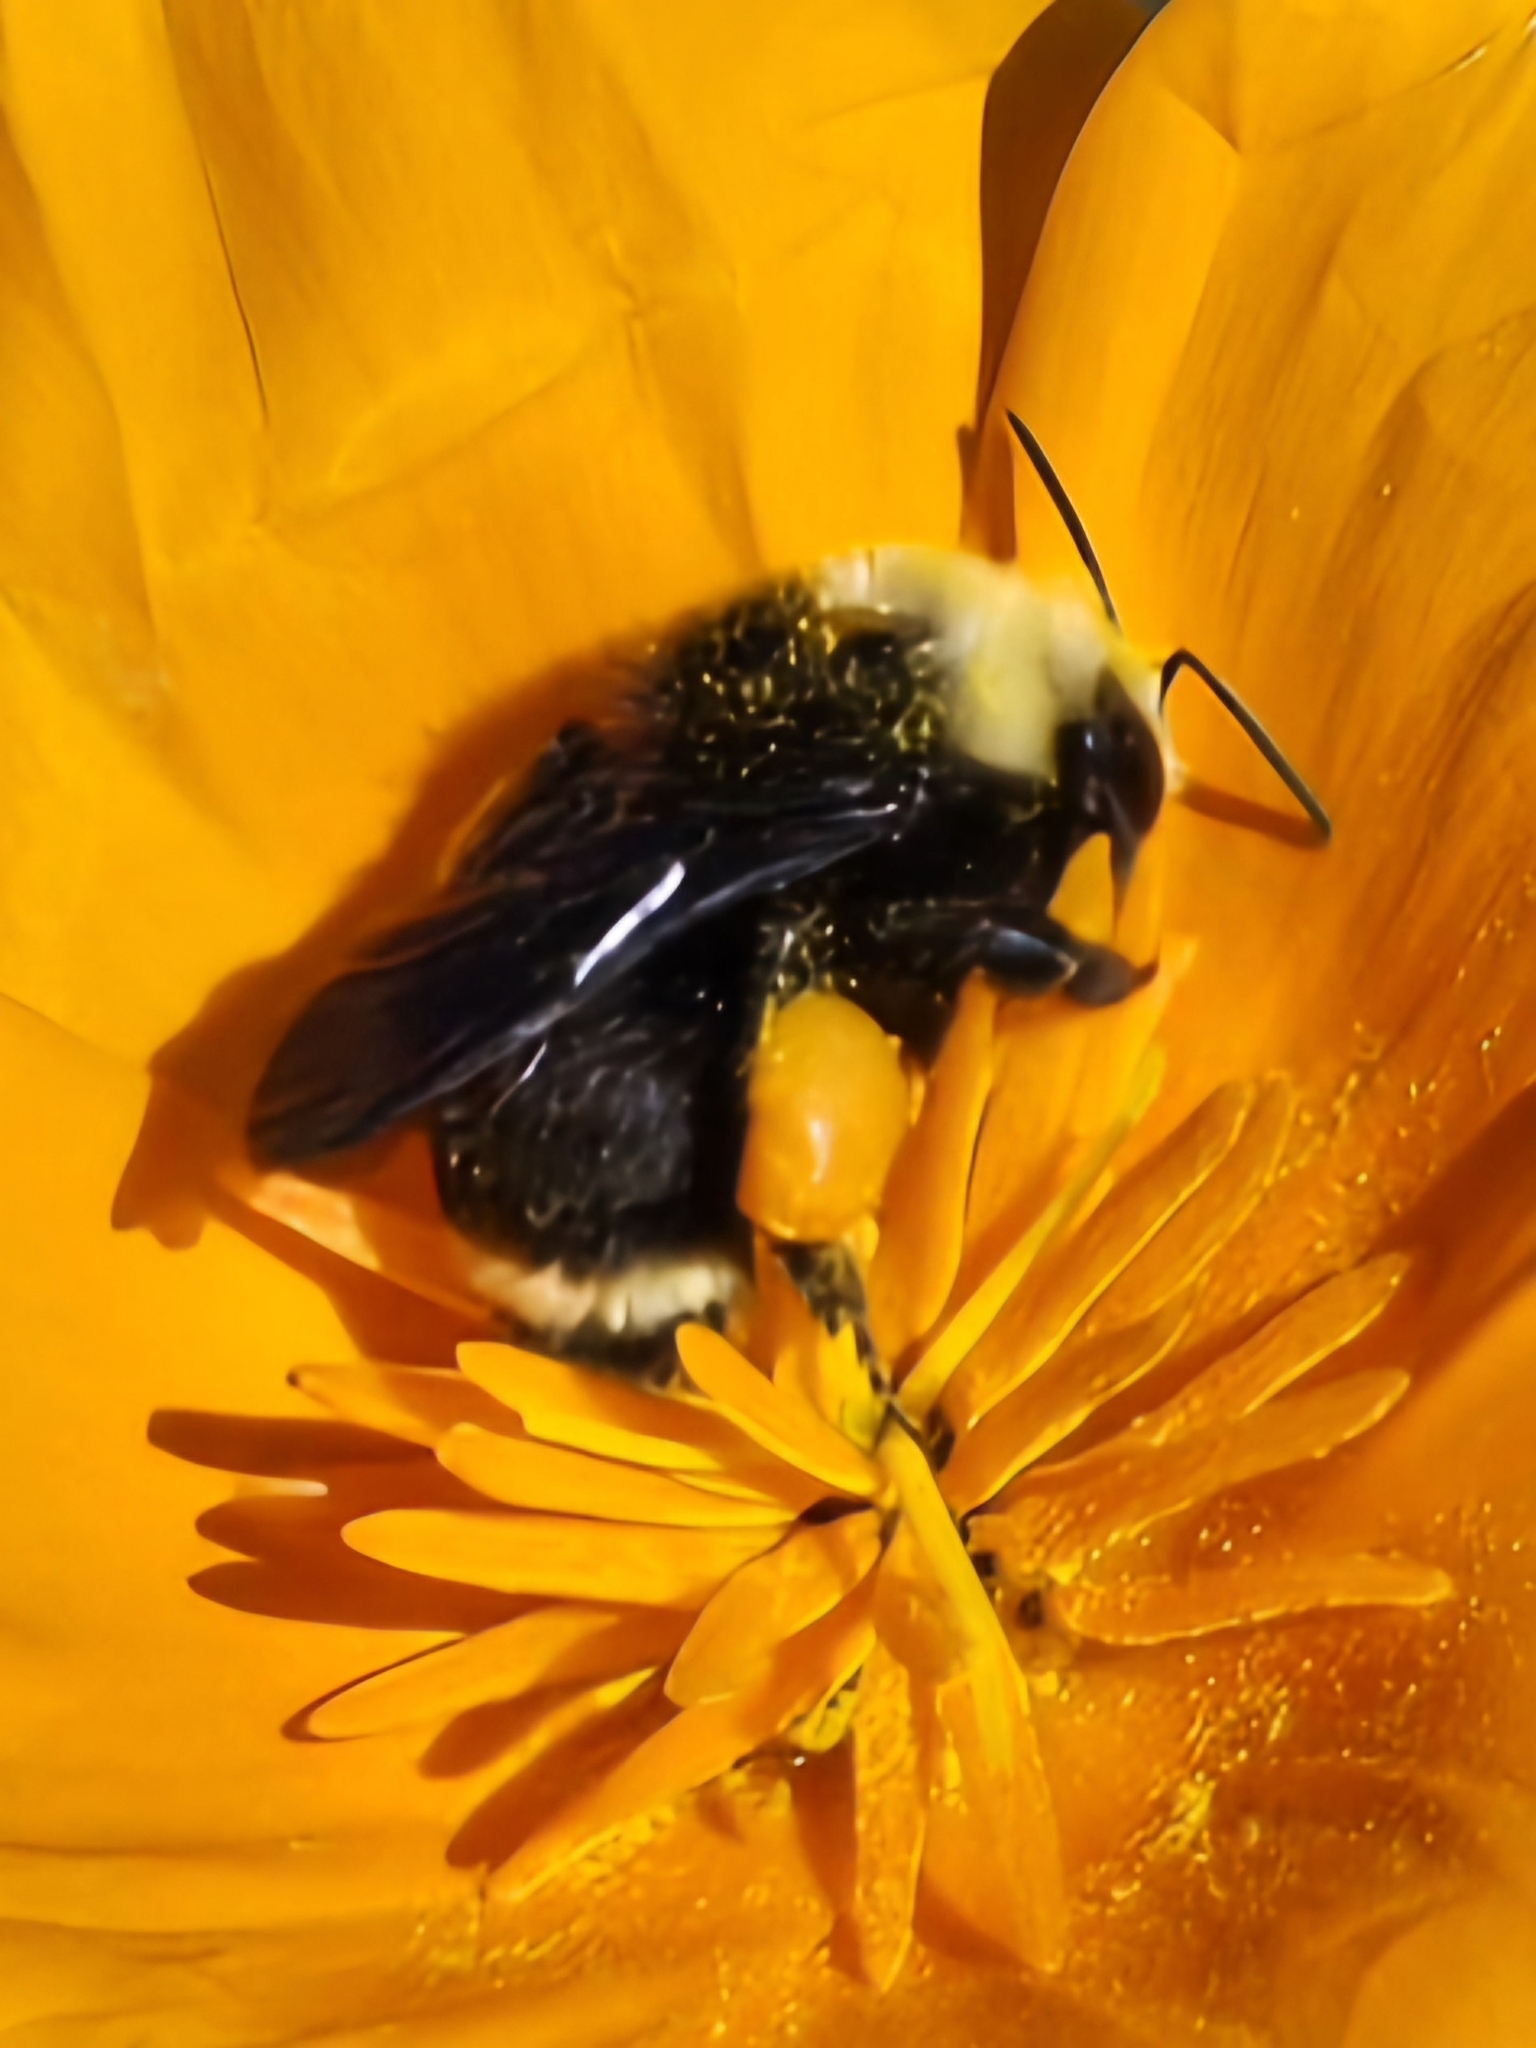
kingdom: Animalia
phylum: Arthropoda
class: Insecta
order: Hymenoptera
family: Apidae
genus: Bombus
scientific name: Bombus vosnesenskii
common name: Vosnesensky bumble bee
